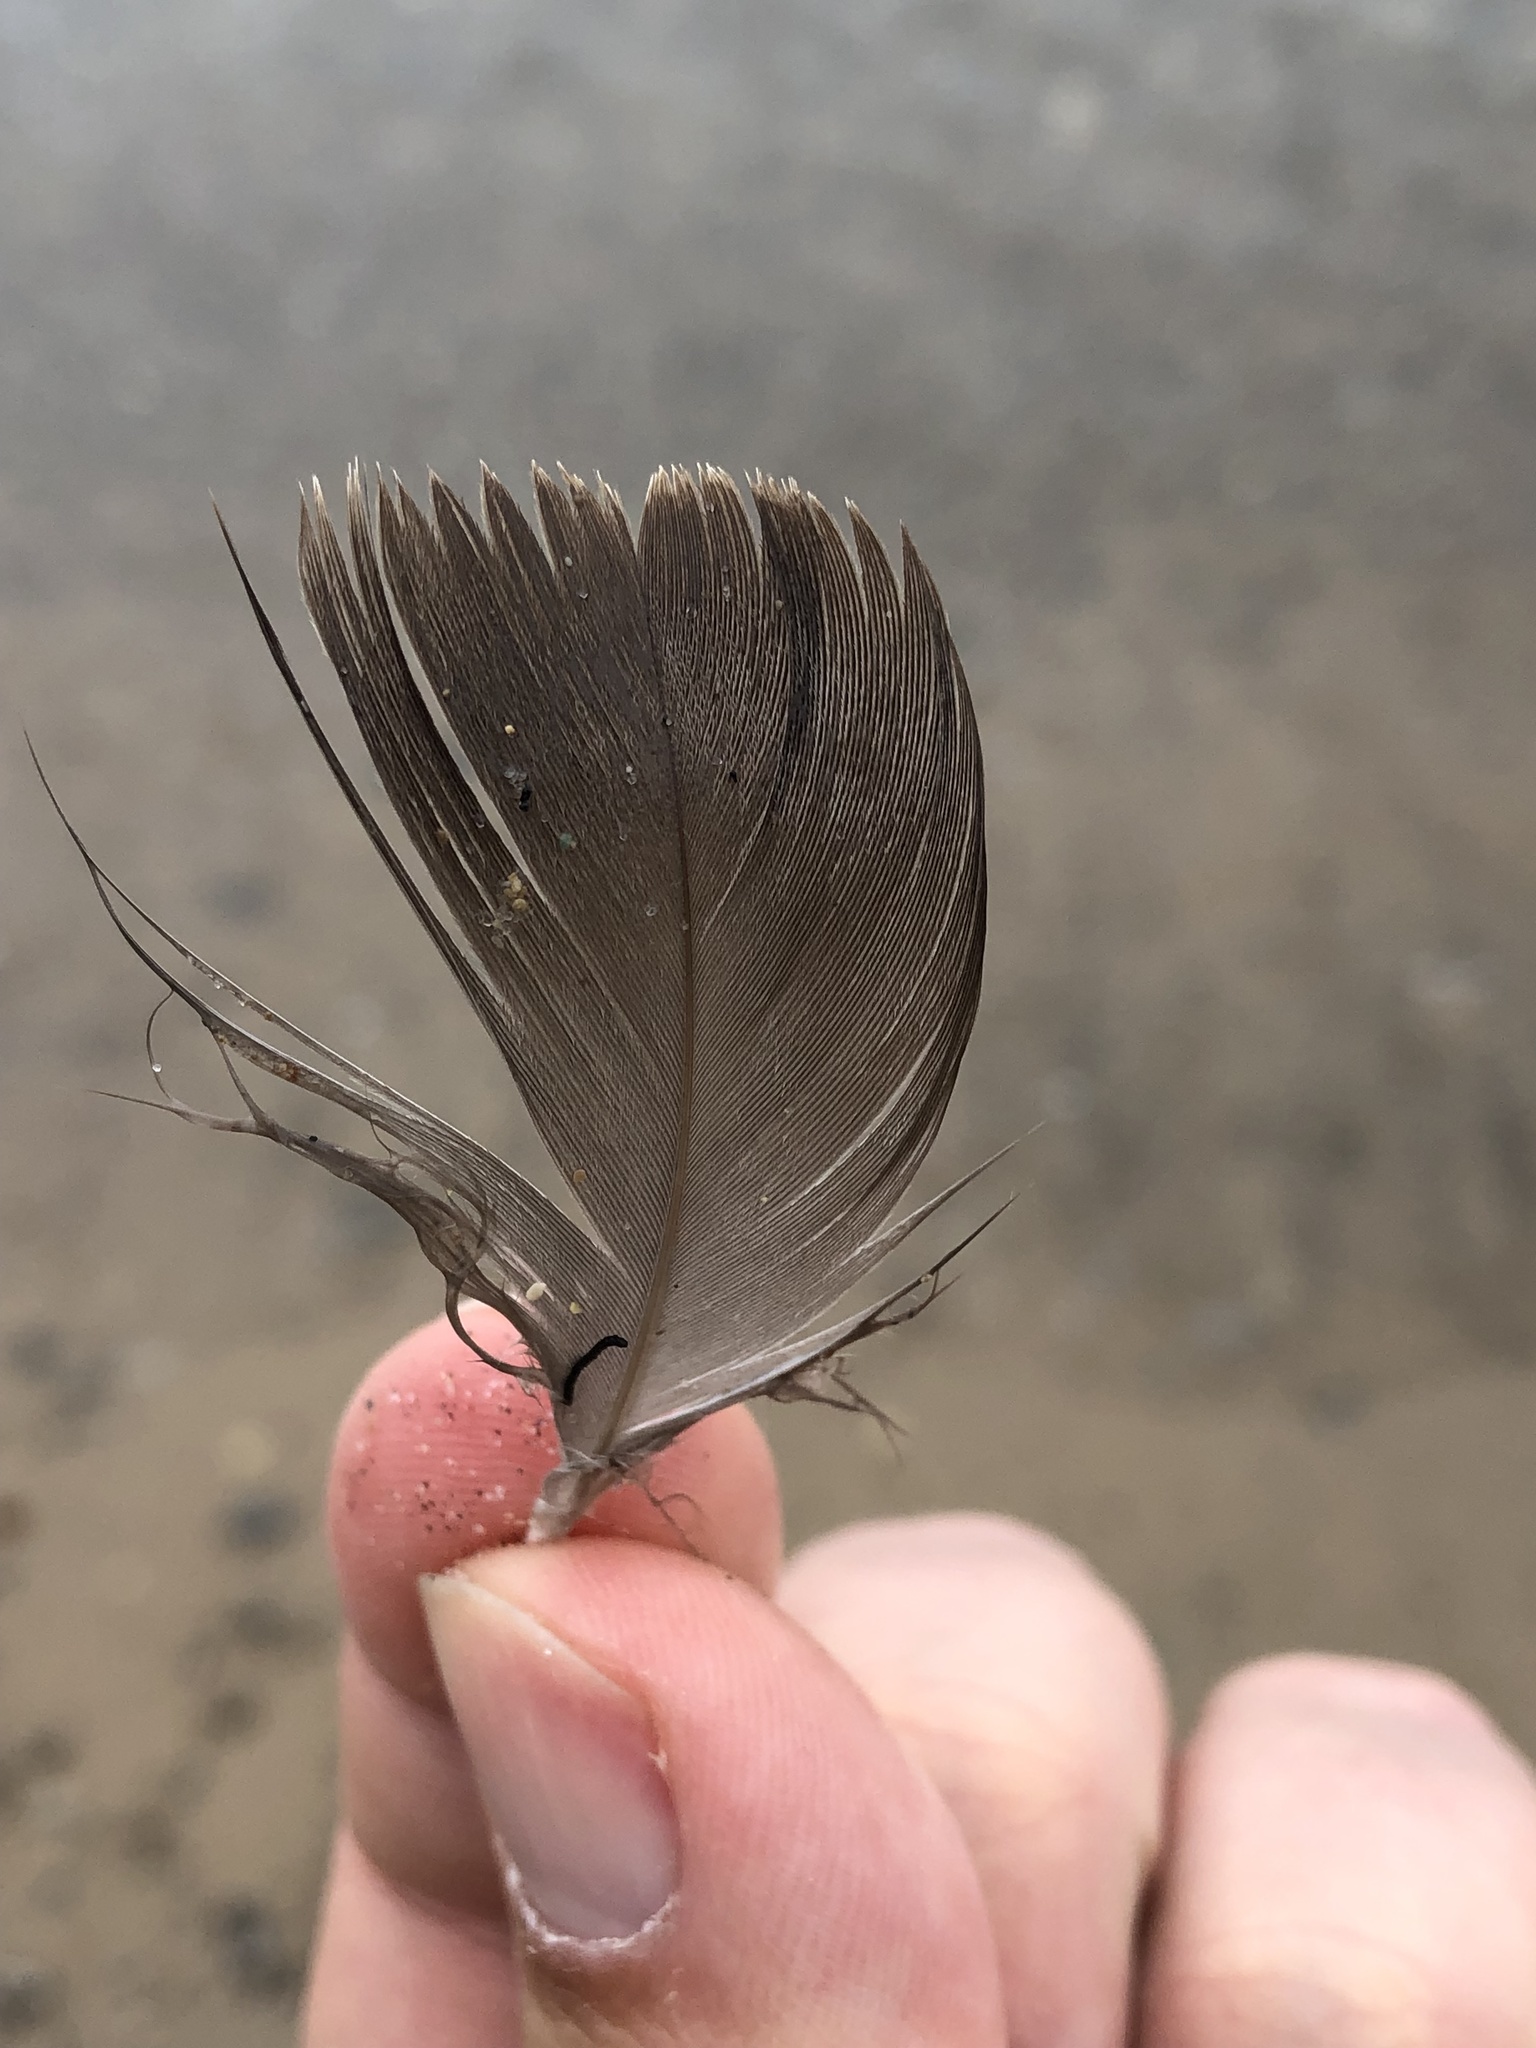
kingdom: Animalia
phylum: Chordata
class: Aves
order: Anseriformes
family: Anatidae
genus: Branta
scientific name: Branta canadensis
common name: Canada goose
